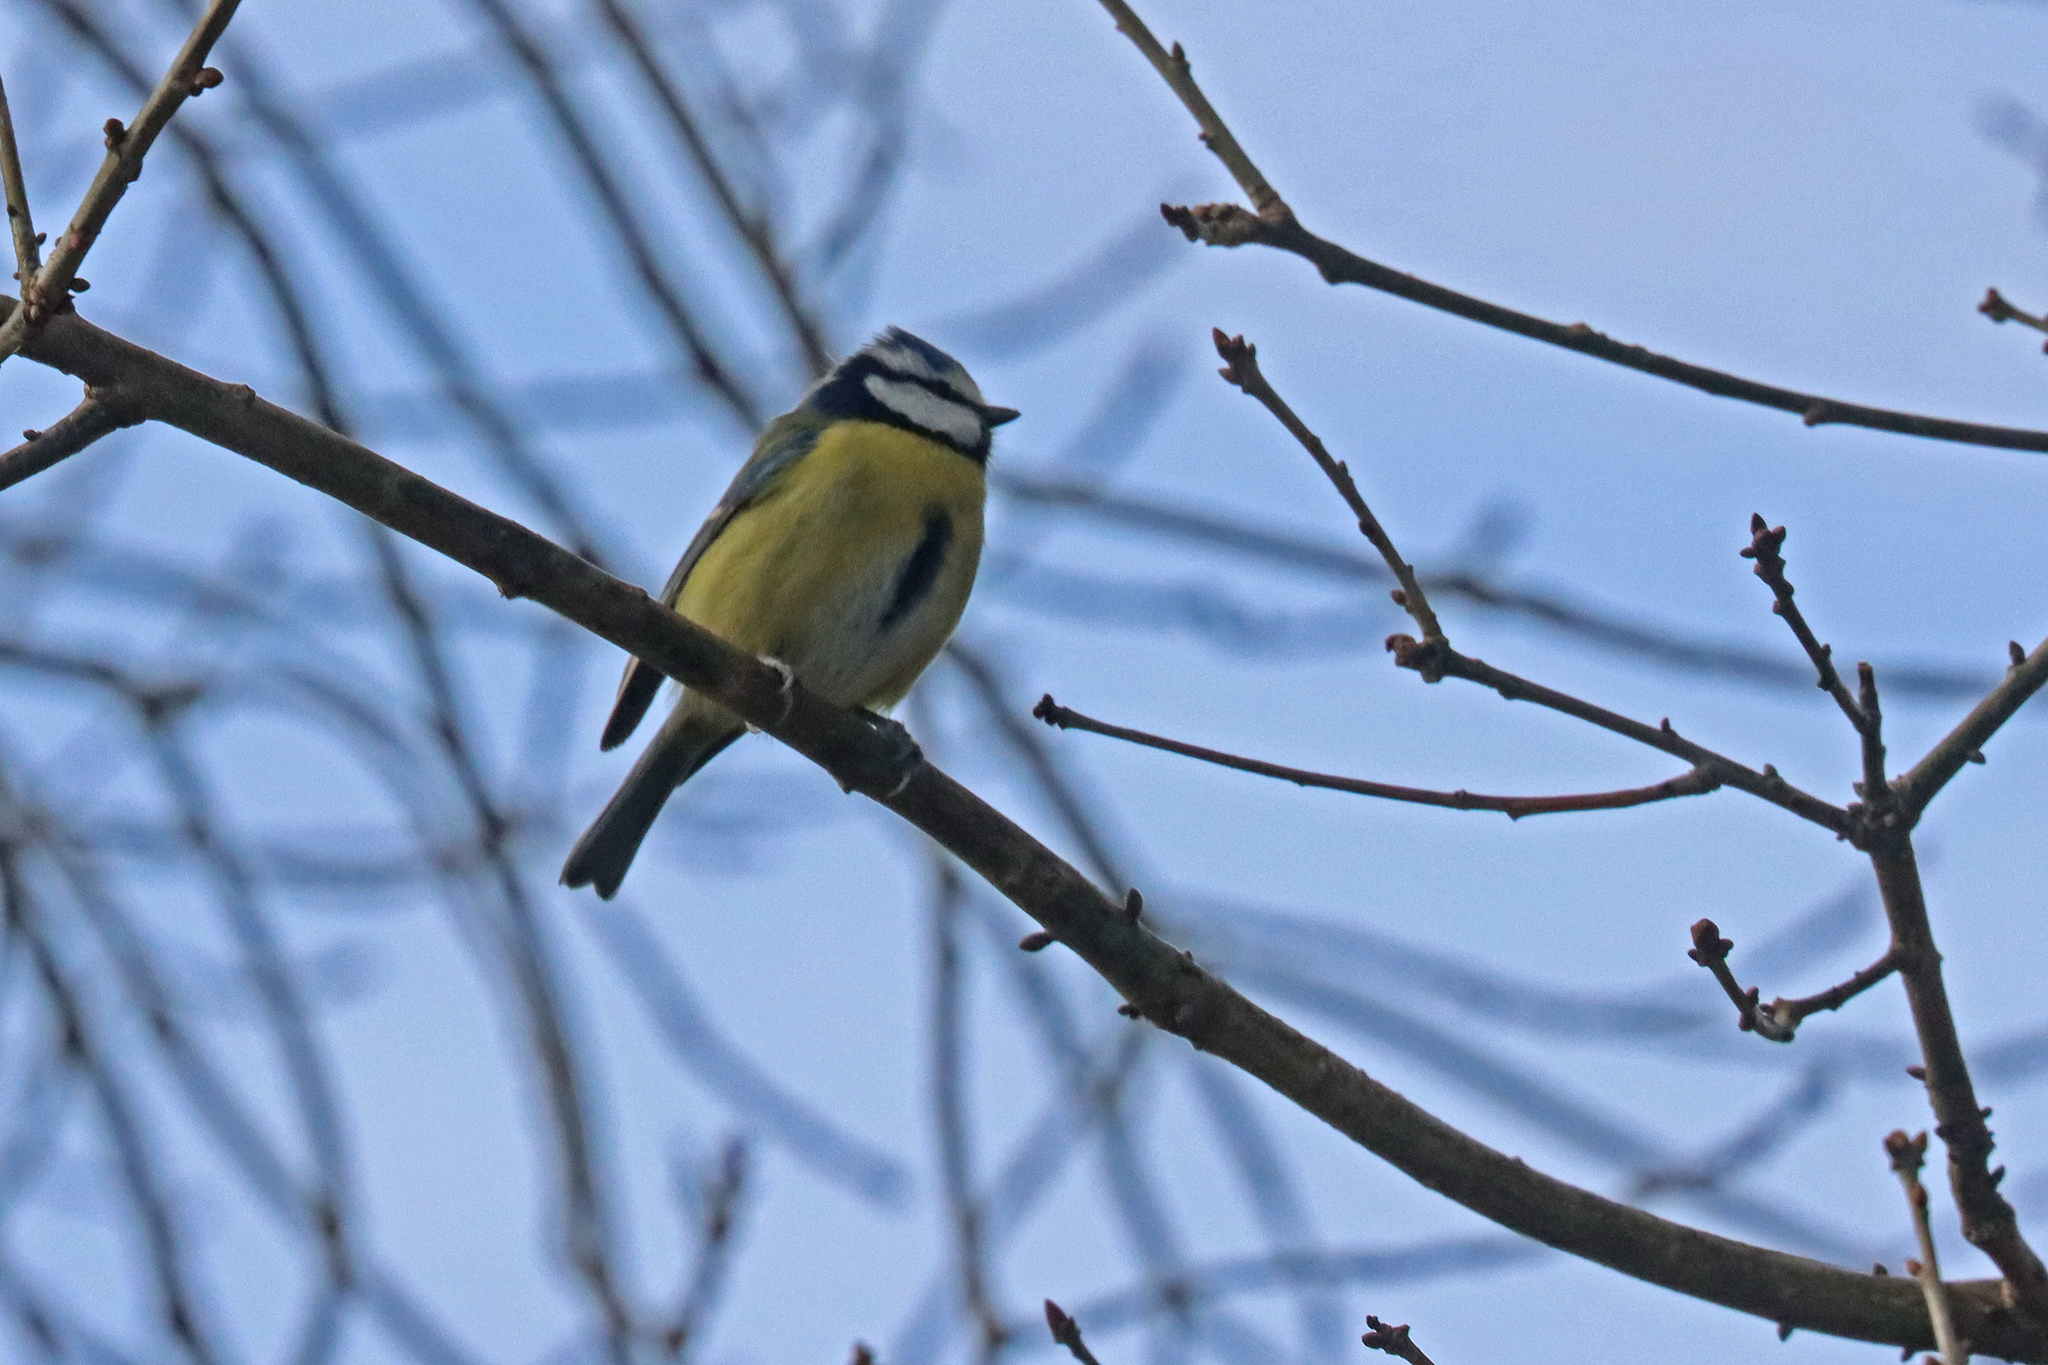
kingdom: Animalia
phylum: Chordata
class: Aves
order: Passeriformes
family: Paridae
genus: Cyanistes
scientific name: Cyanistes caeruleus
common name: Eurasian blue tit
